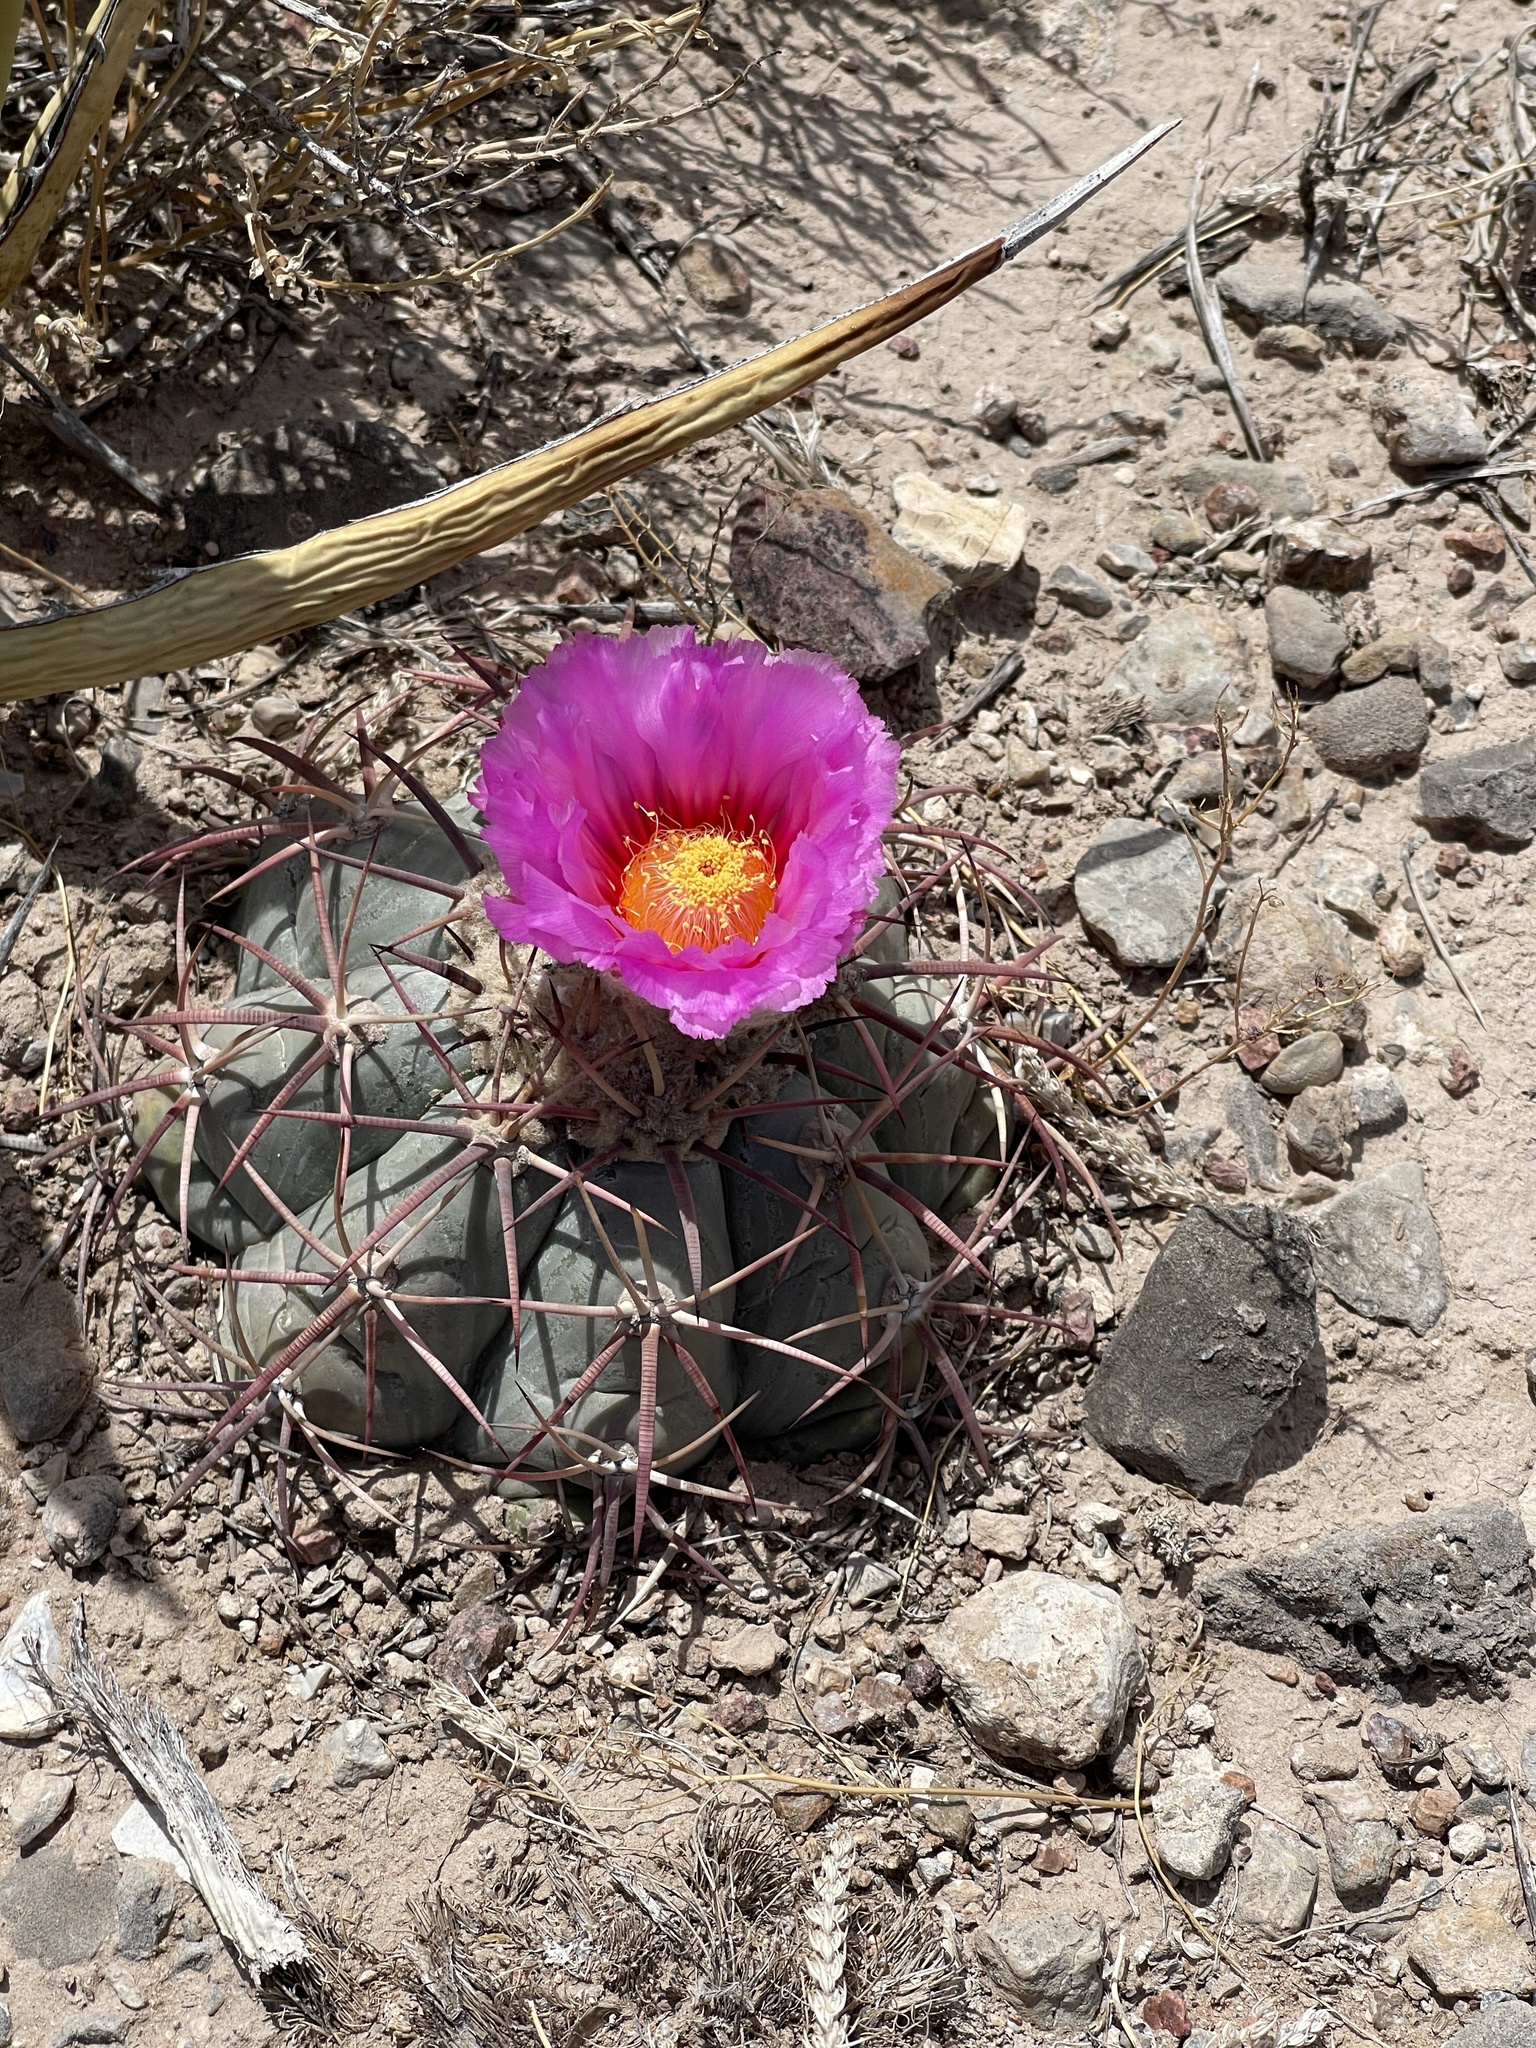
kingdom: Plantae
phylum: Tracheophyta
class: Magnoliopsida
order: Caryophyllales
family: Cactaceae
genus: Echinocactus
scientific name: Echinocactus horizonthalonius
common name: Devilshead
